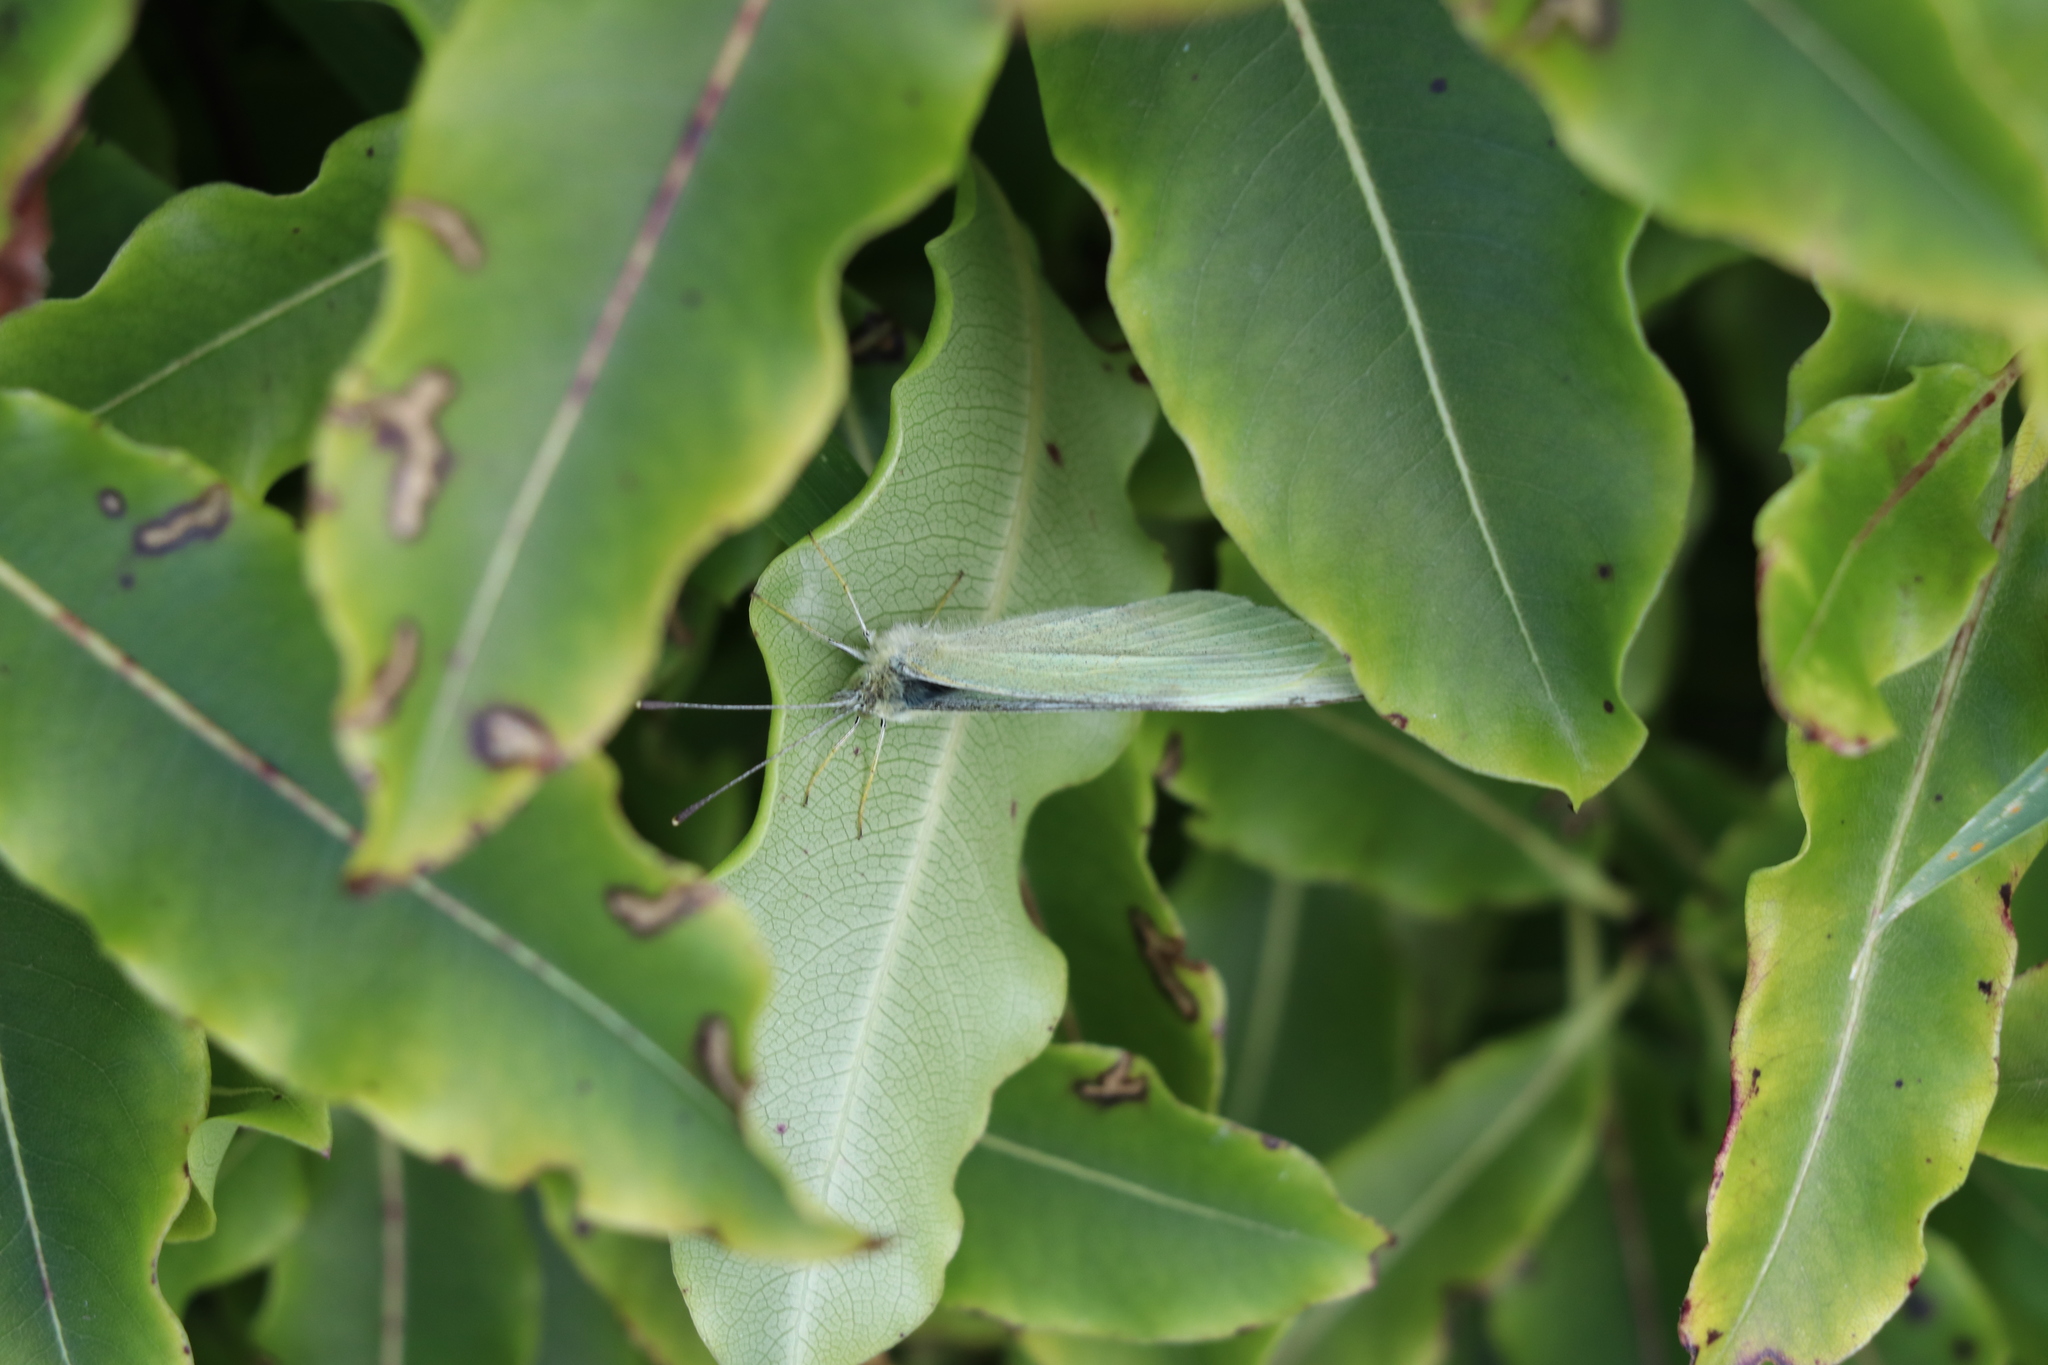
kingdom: Animalia
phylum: Arthropoda
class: Insecta
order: Lepidoptera
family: Pieridae
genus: Pieris
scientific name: Pieris rapae
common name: Small white
